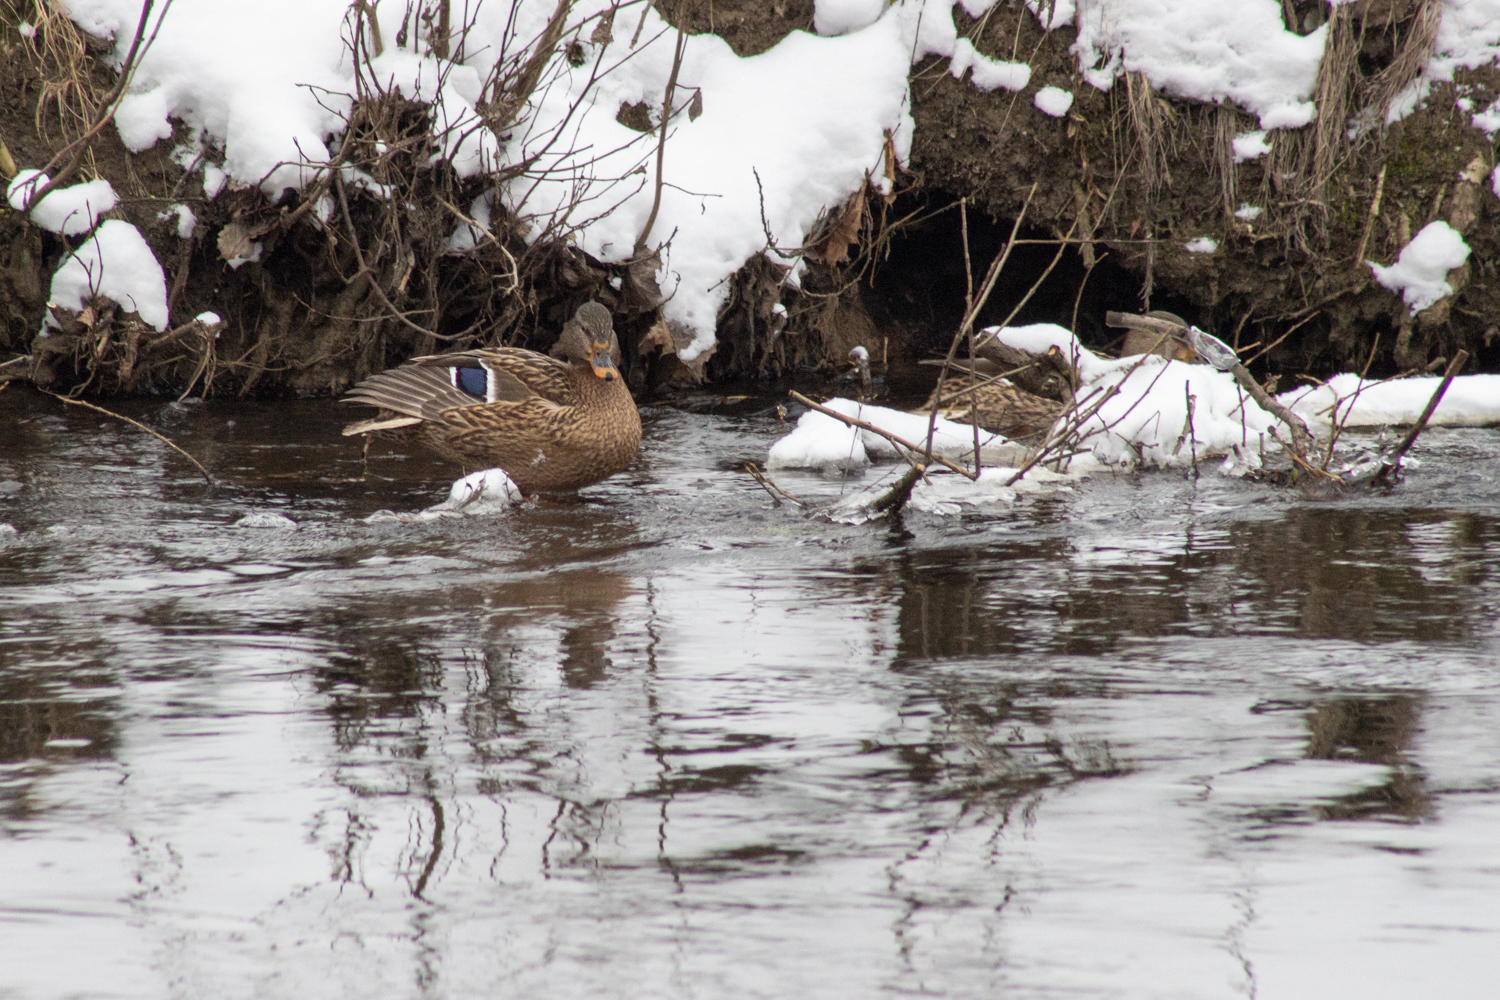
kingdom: Animalia
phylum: Chordata
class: Aves
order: Anseriformes
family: Anatidae
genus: Anas
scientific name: Anas platyrhynchos
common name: Mallard
